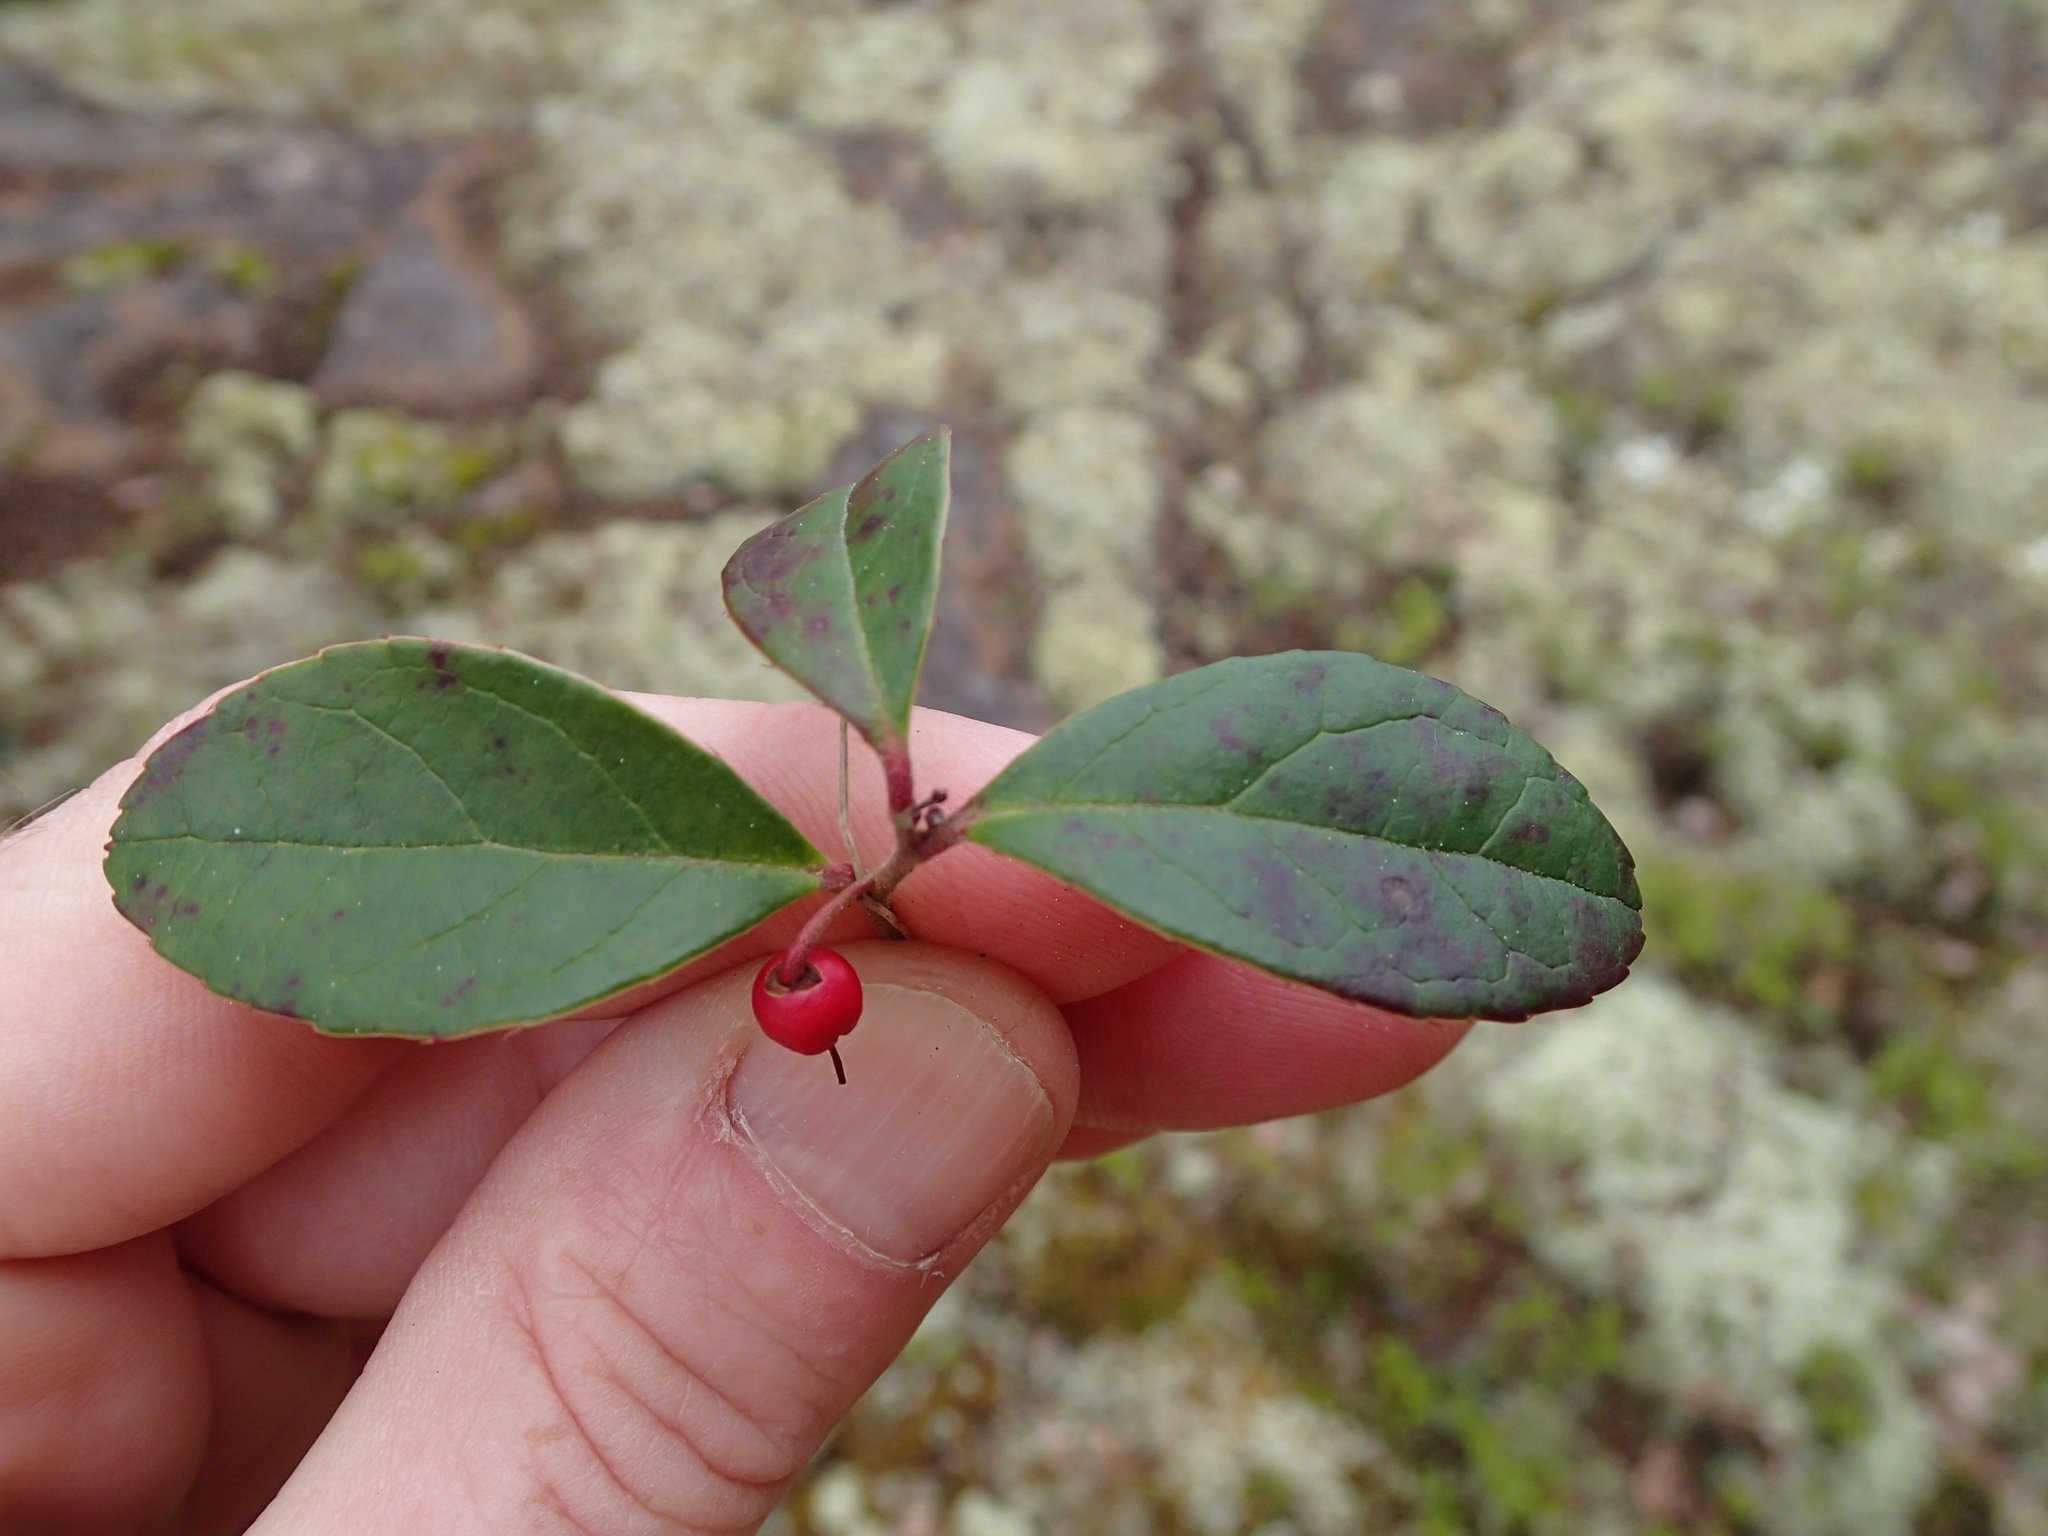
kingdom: Plantae
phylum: Tracheophyta
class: Magnoliopsida
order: Ericales
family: Ericaceae
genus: Gaultheria
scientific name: Gaultheria procumbens
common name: Checkerberry
